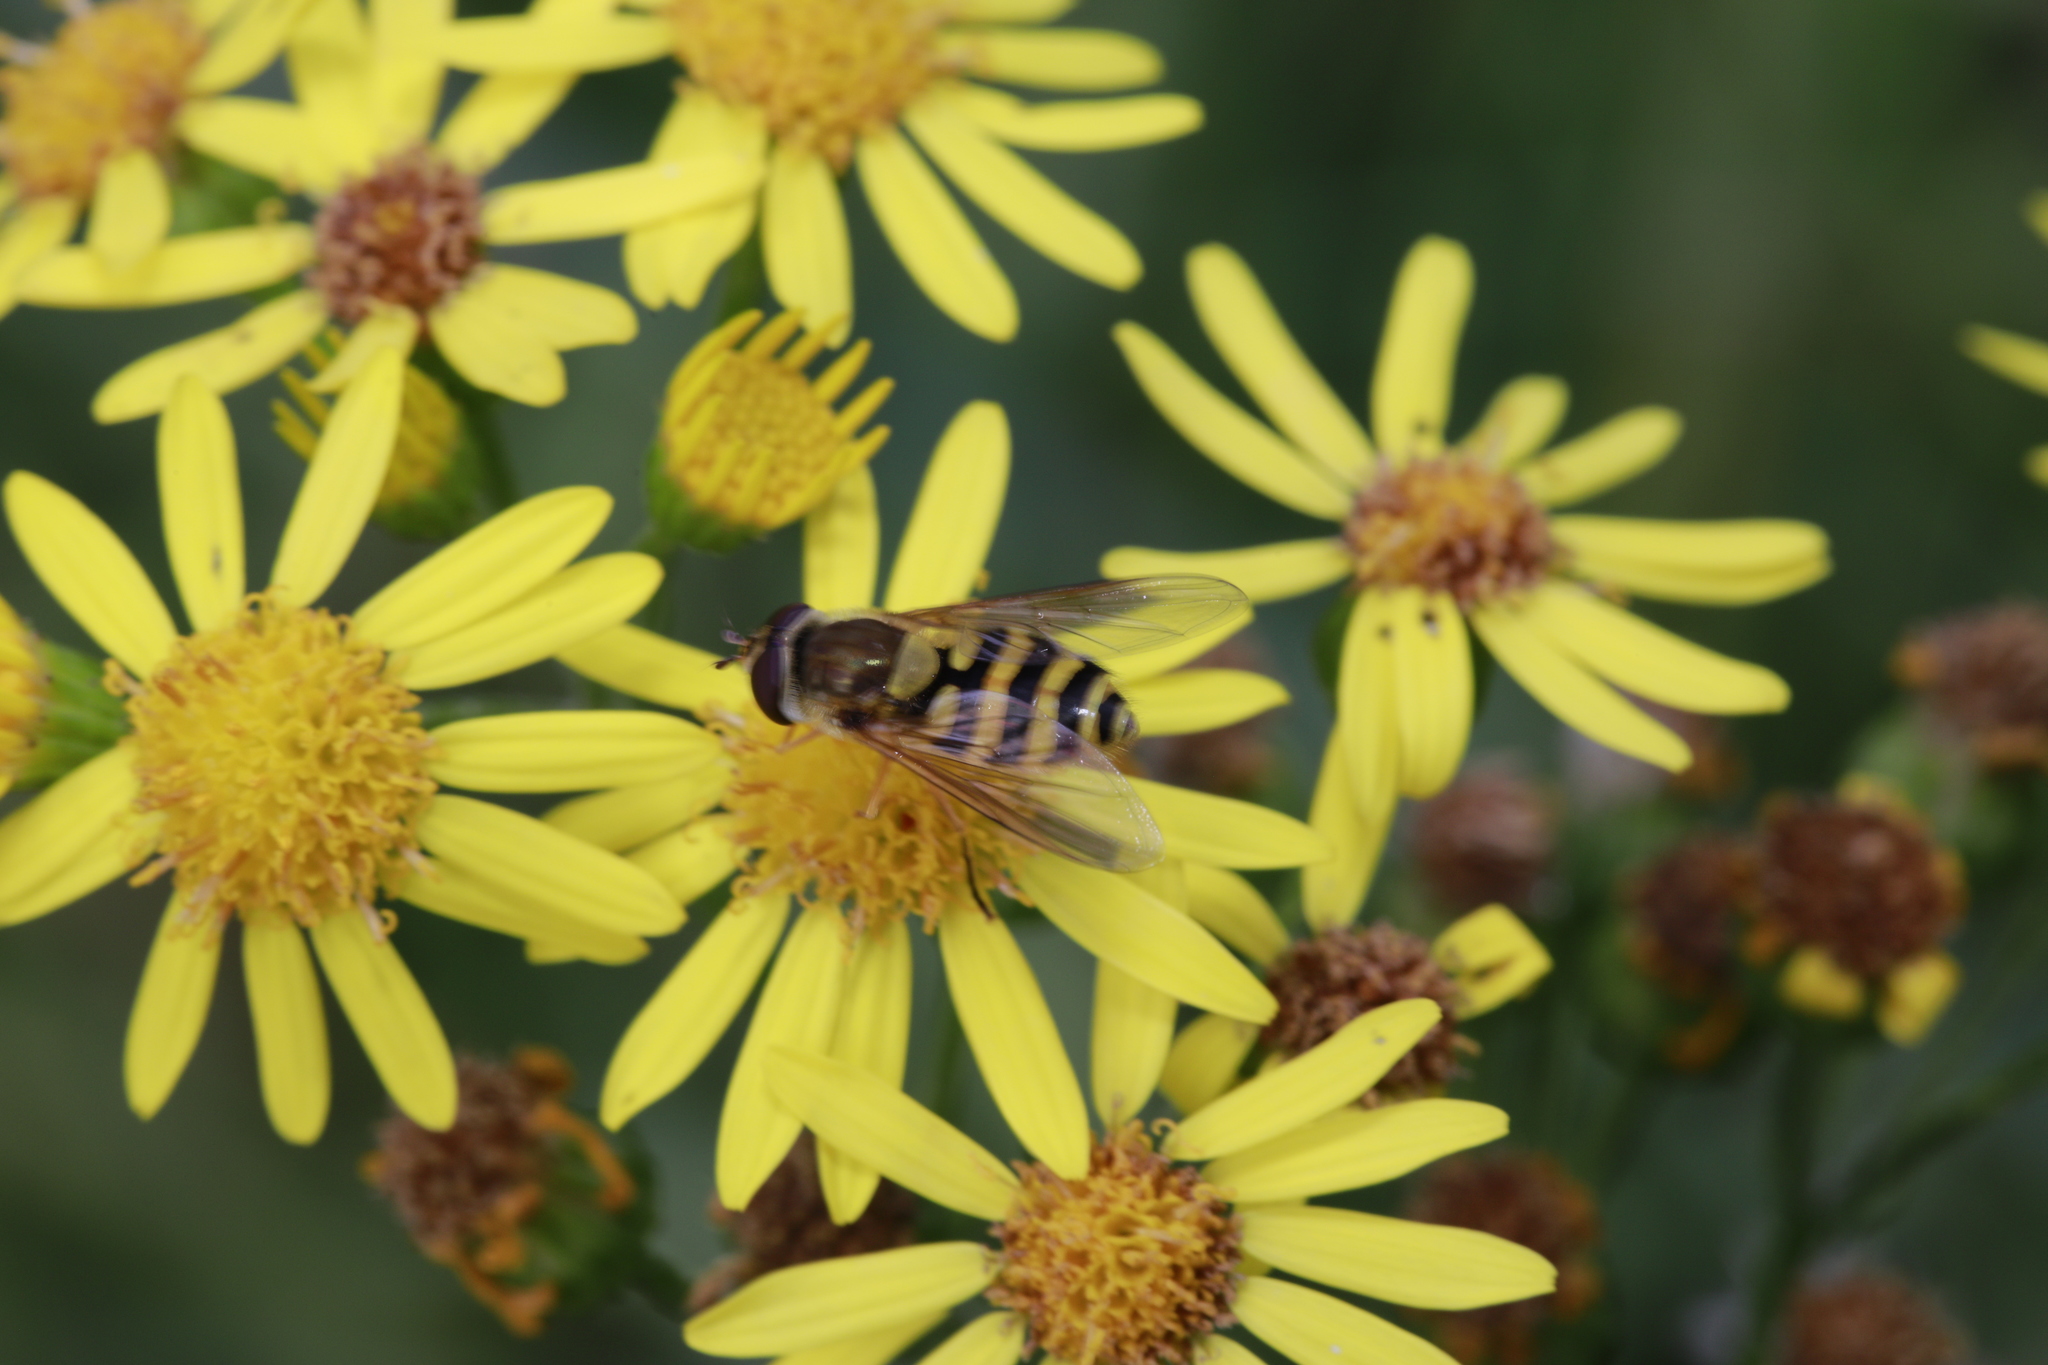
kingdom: Animalia
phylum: Arthropoda
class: Insecta
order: Diptera
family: Syrphidae
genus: Syrphus
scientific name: Syrphus
